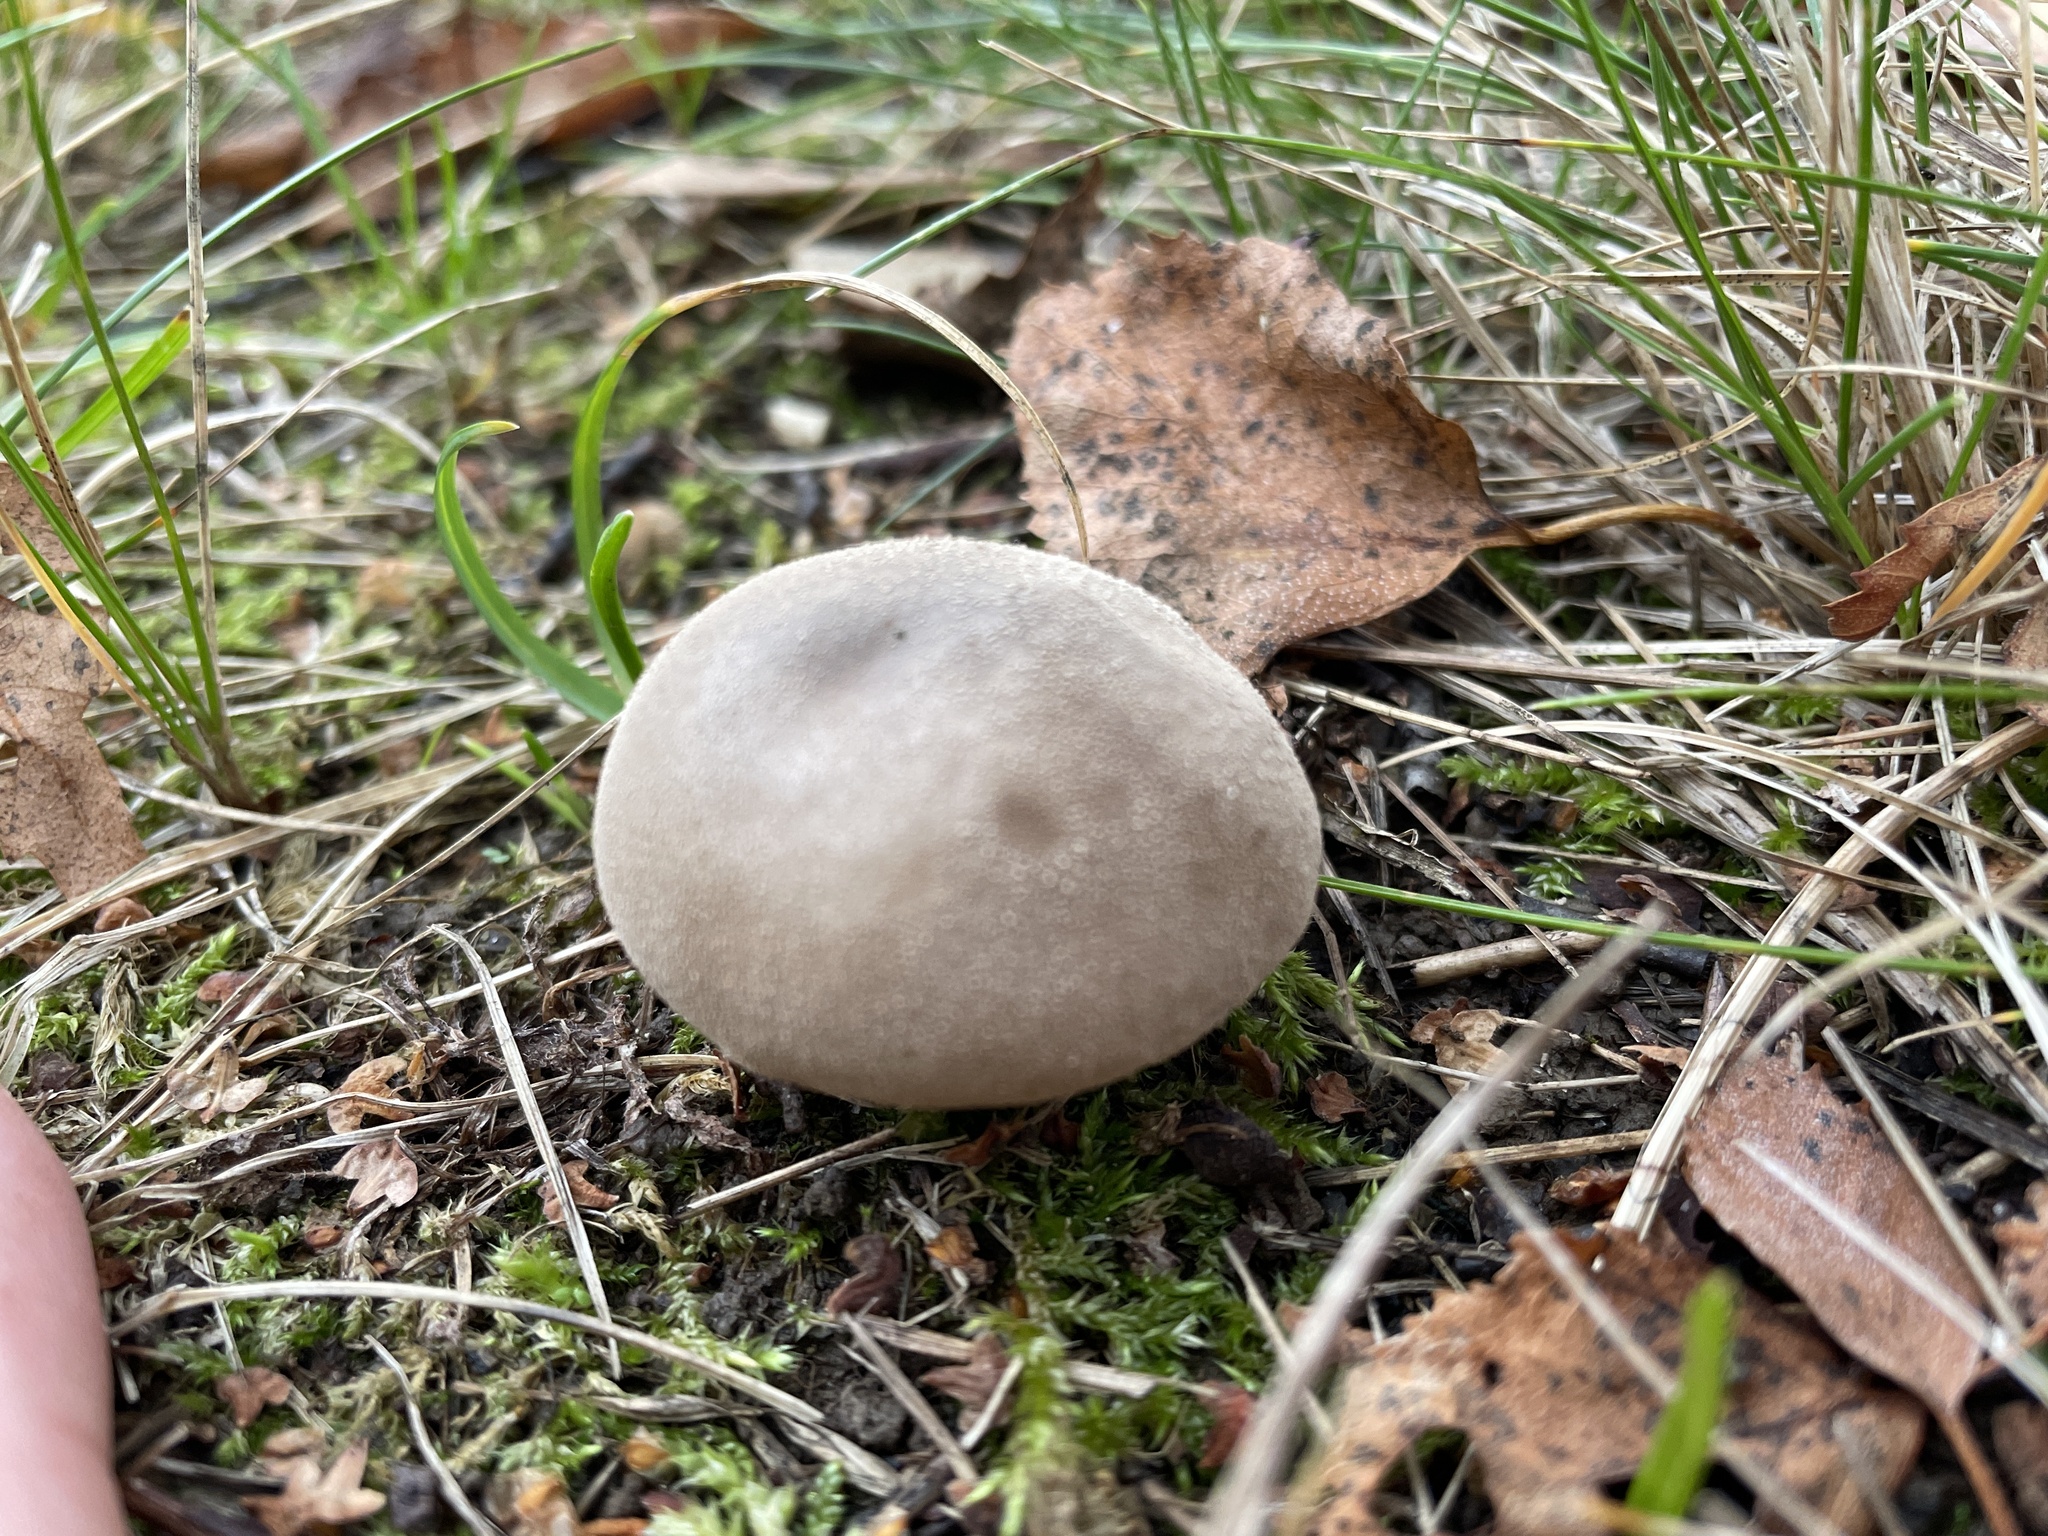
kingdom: Fungi
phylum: Basidiomycota
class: Agaricomycetes
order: Agaricales
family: Lycoperdaceae
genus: Lycoperdon
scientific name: Lycoperdon
